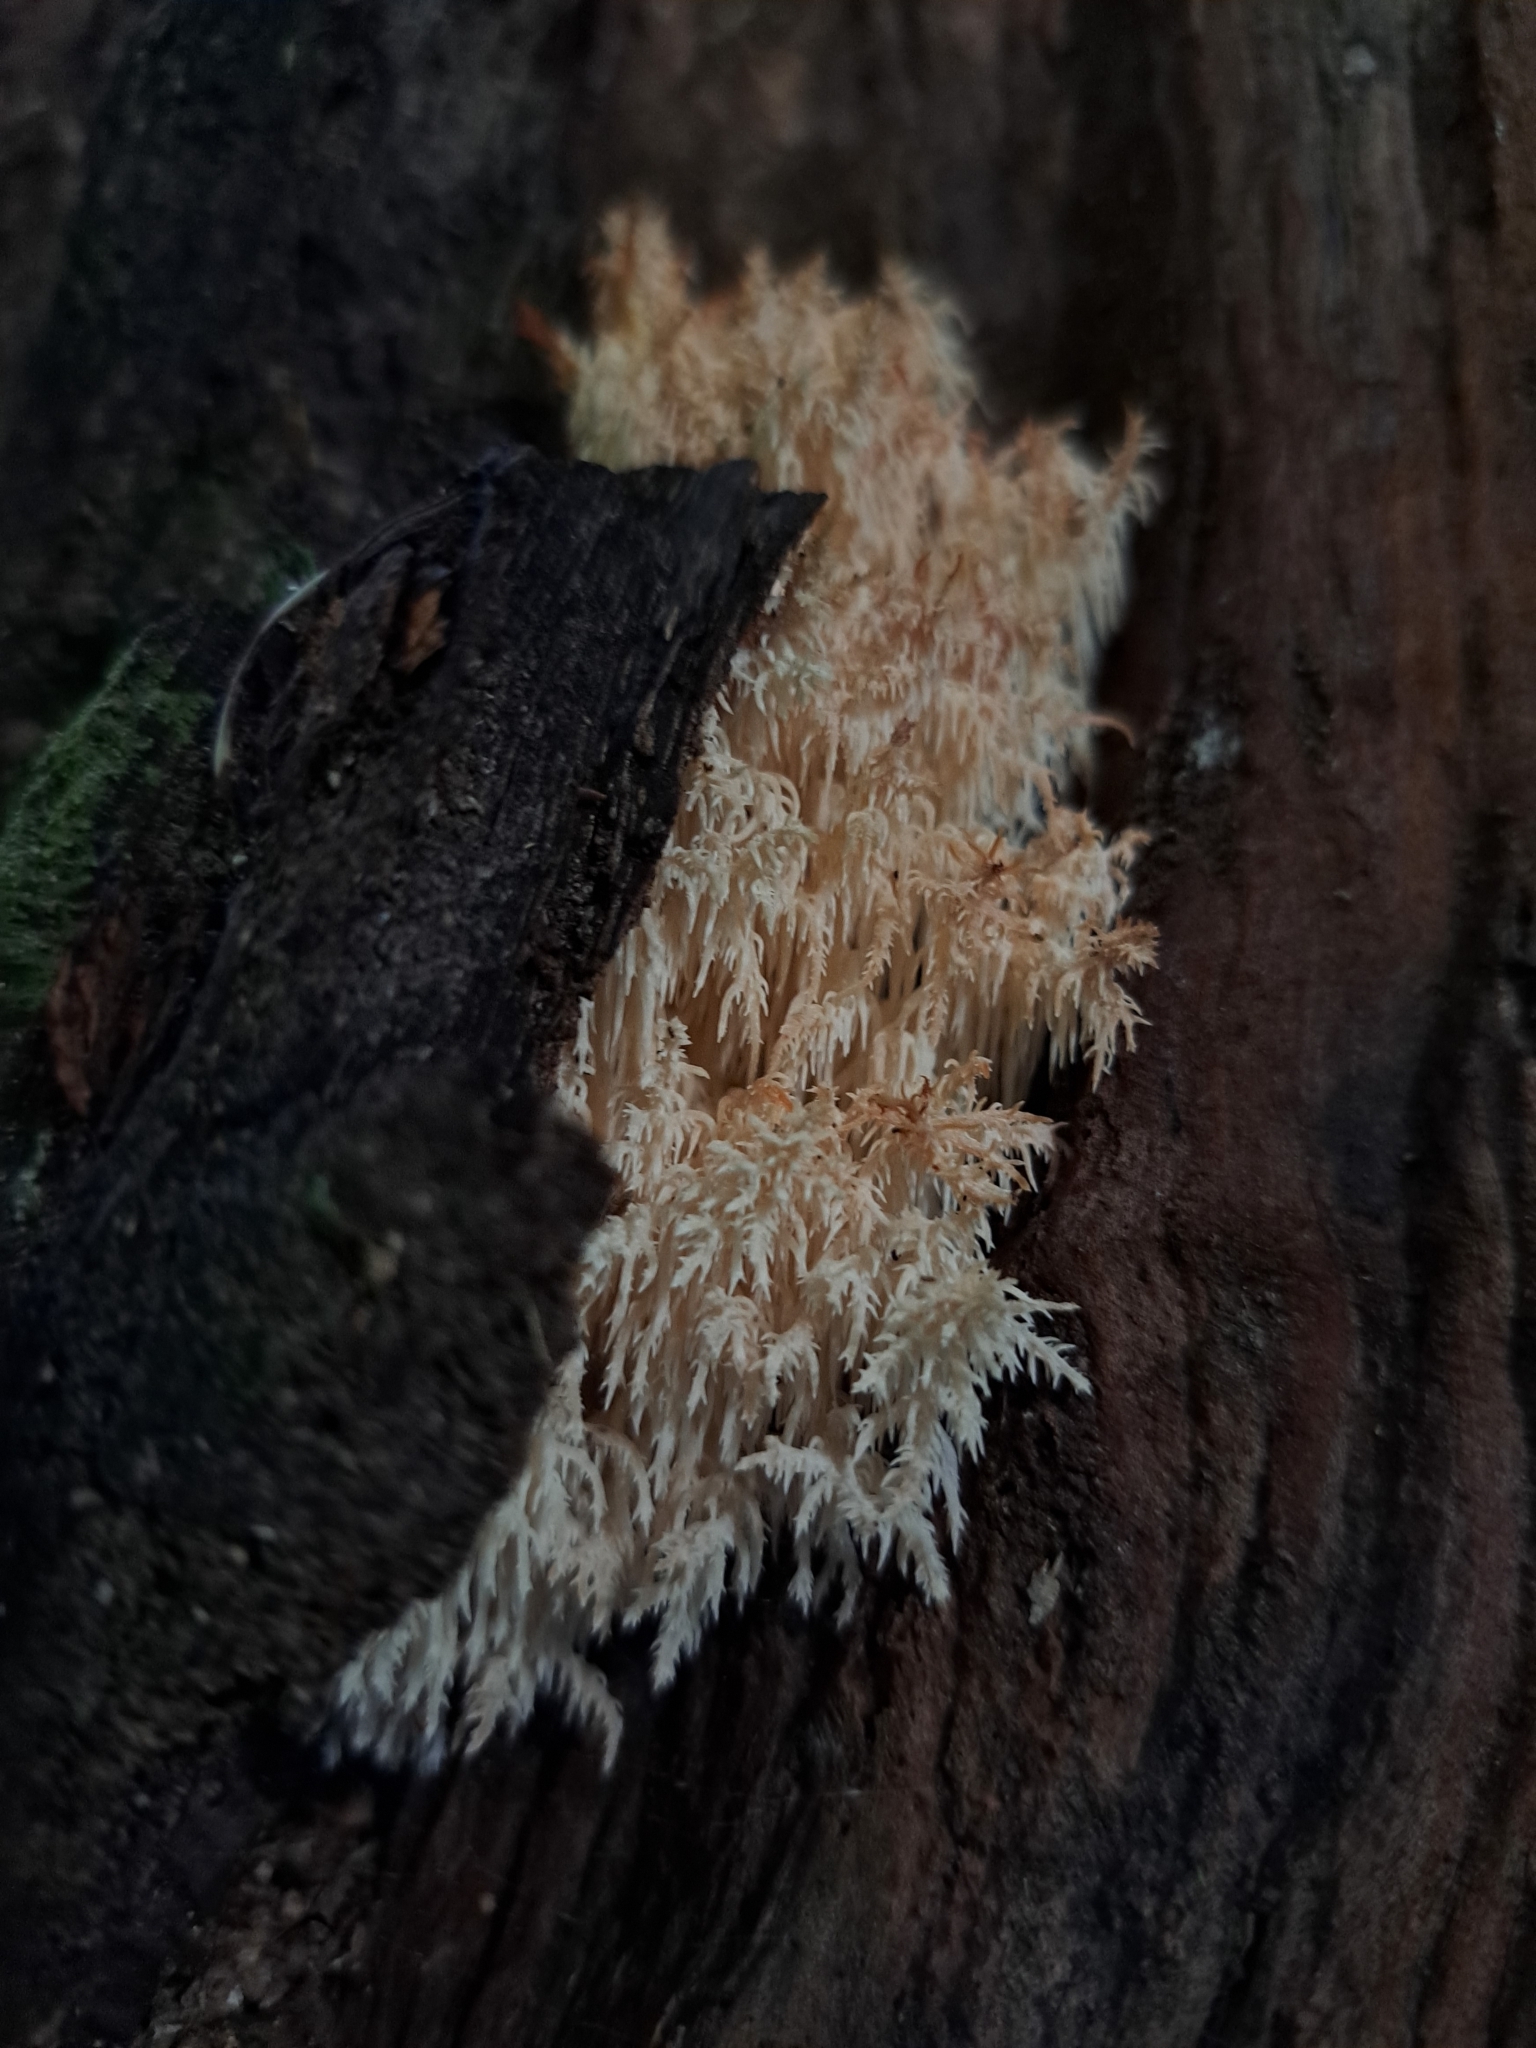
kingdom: Fungi
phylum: Basidiomycota
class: Agaricomycetes
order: Russulales
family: Hericiaceae
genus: Hericium
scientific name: Hericium novae-zealandiae
